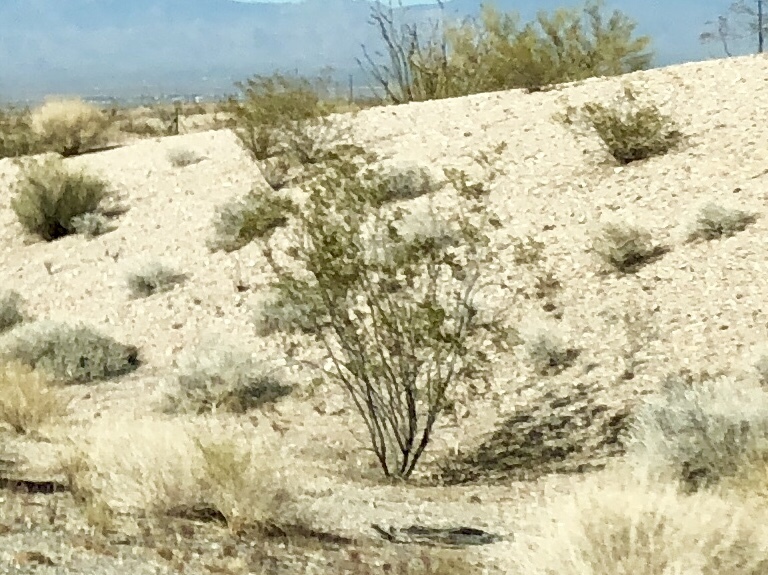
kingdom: Plantae
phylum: Tracheophyta
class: Magnoliopsida
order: Zygophyllales
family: Zygophyllaceae
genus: Larrea
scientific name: Larrea tridentata
